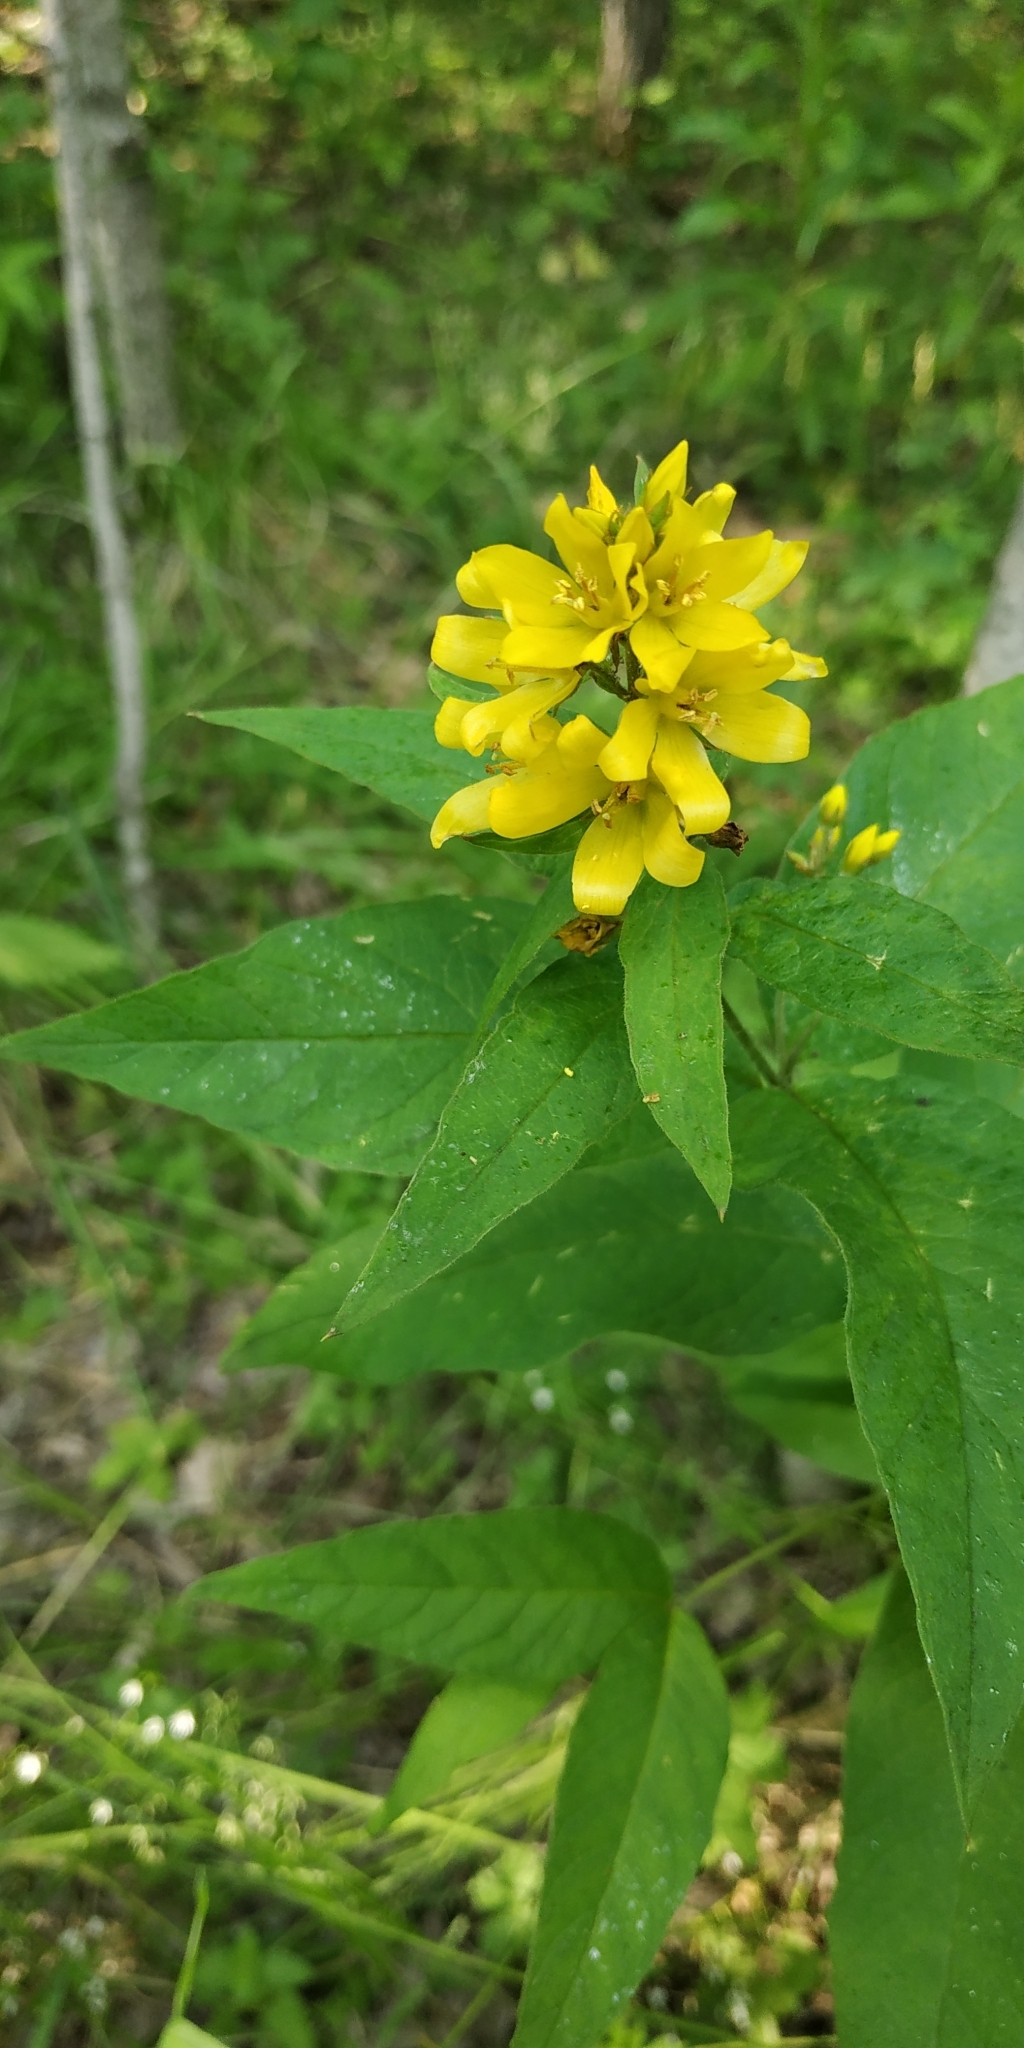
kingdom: Plantae
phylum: Tracheophyta
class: Magnoliopsida
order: Ericales
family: Primulaceae
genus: Lysimachia
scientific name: Lysimachia vulgaris
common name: Yellow loosestrife
